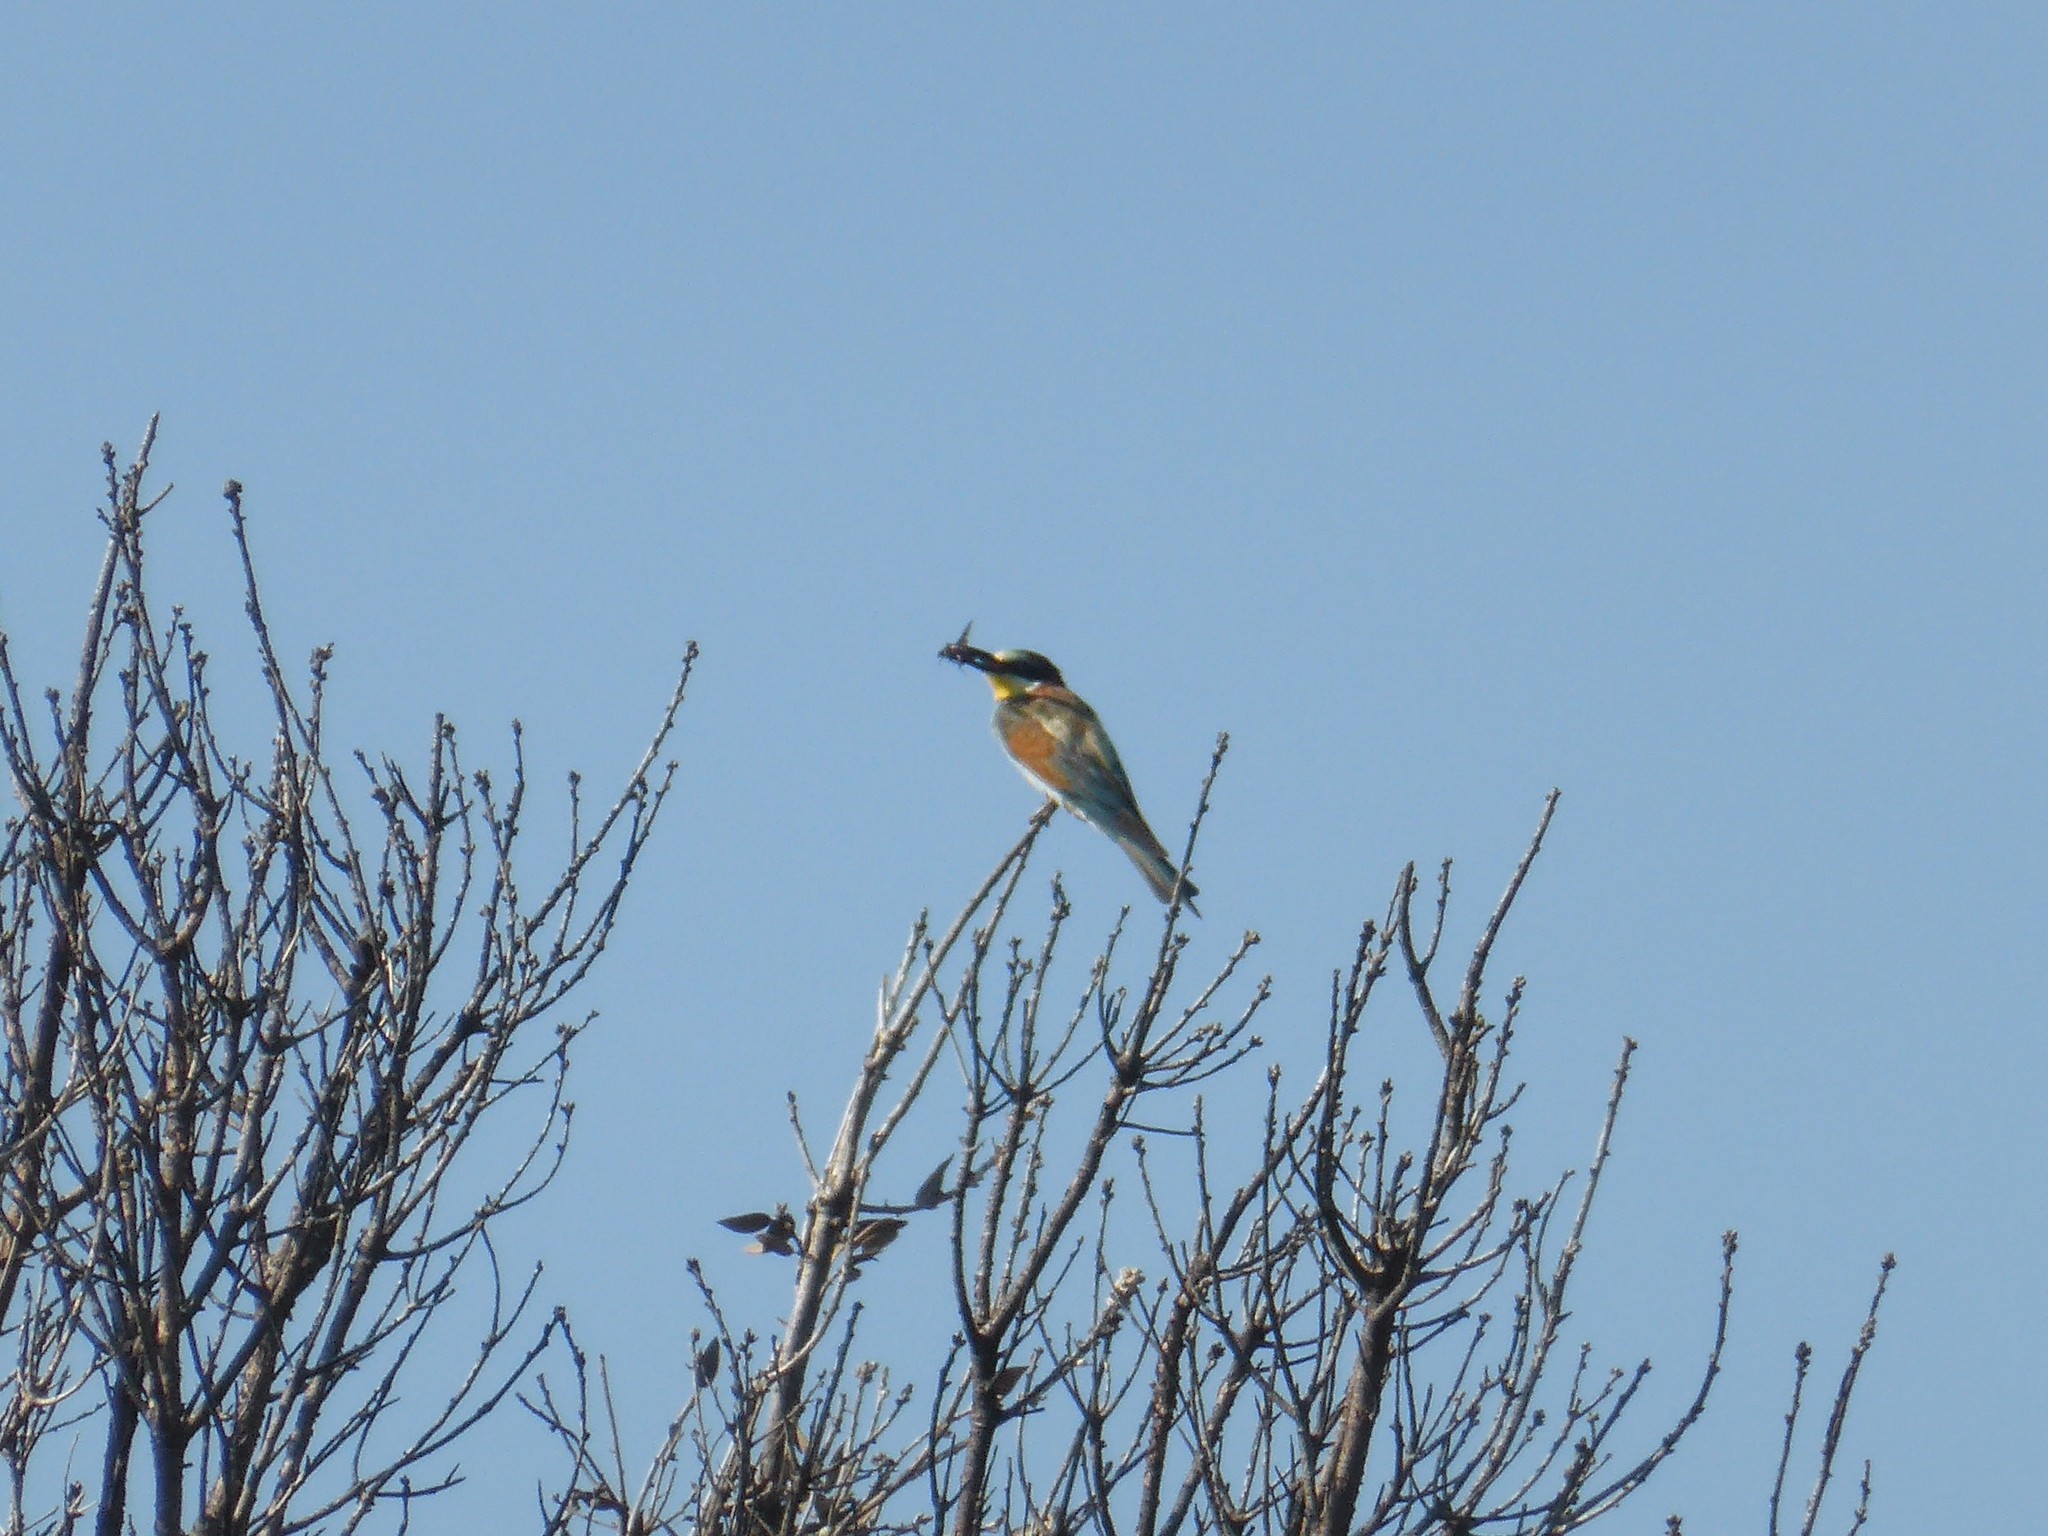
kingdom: Animalia
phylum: Chordata
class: Aves
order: Coraciiformes
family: Meropidae
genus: Merops
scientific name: Merops apiaster
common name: European bee-eater
